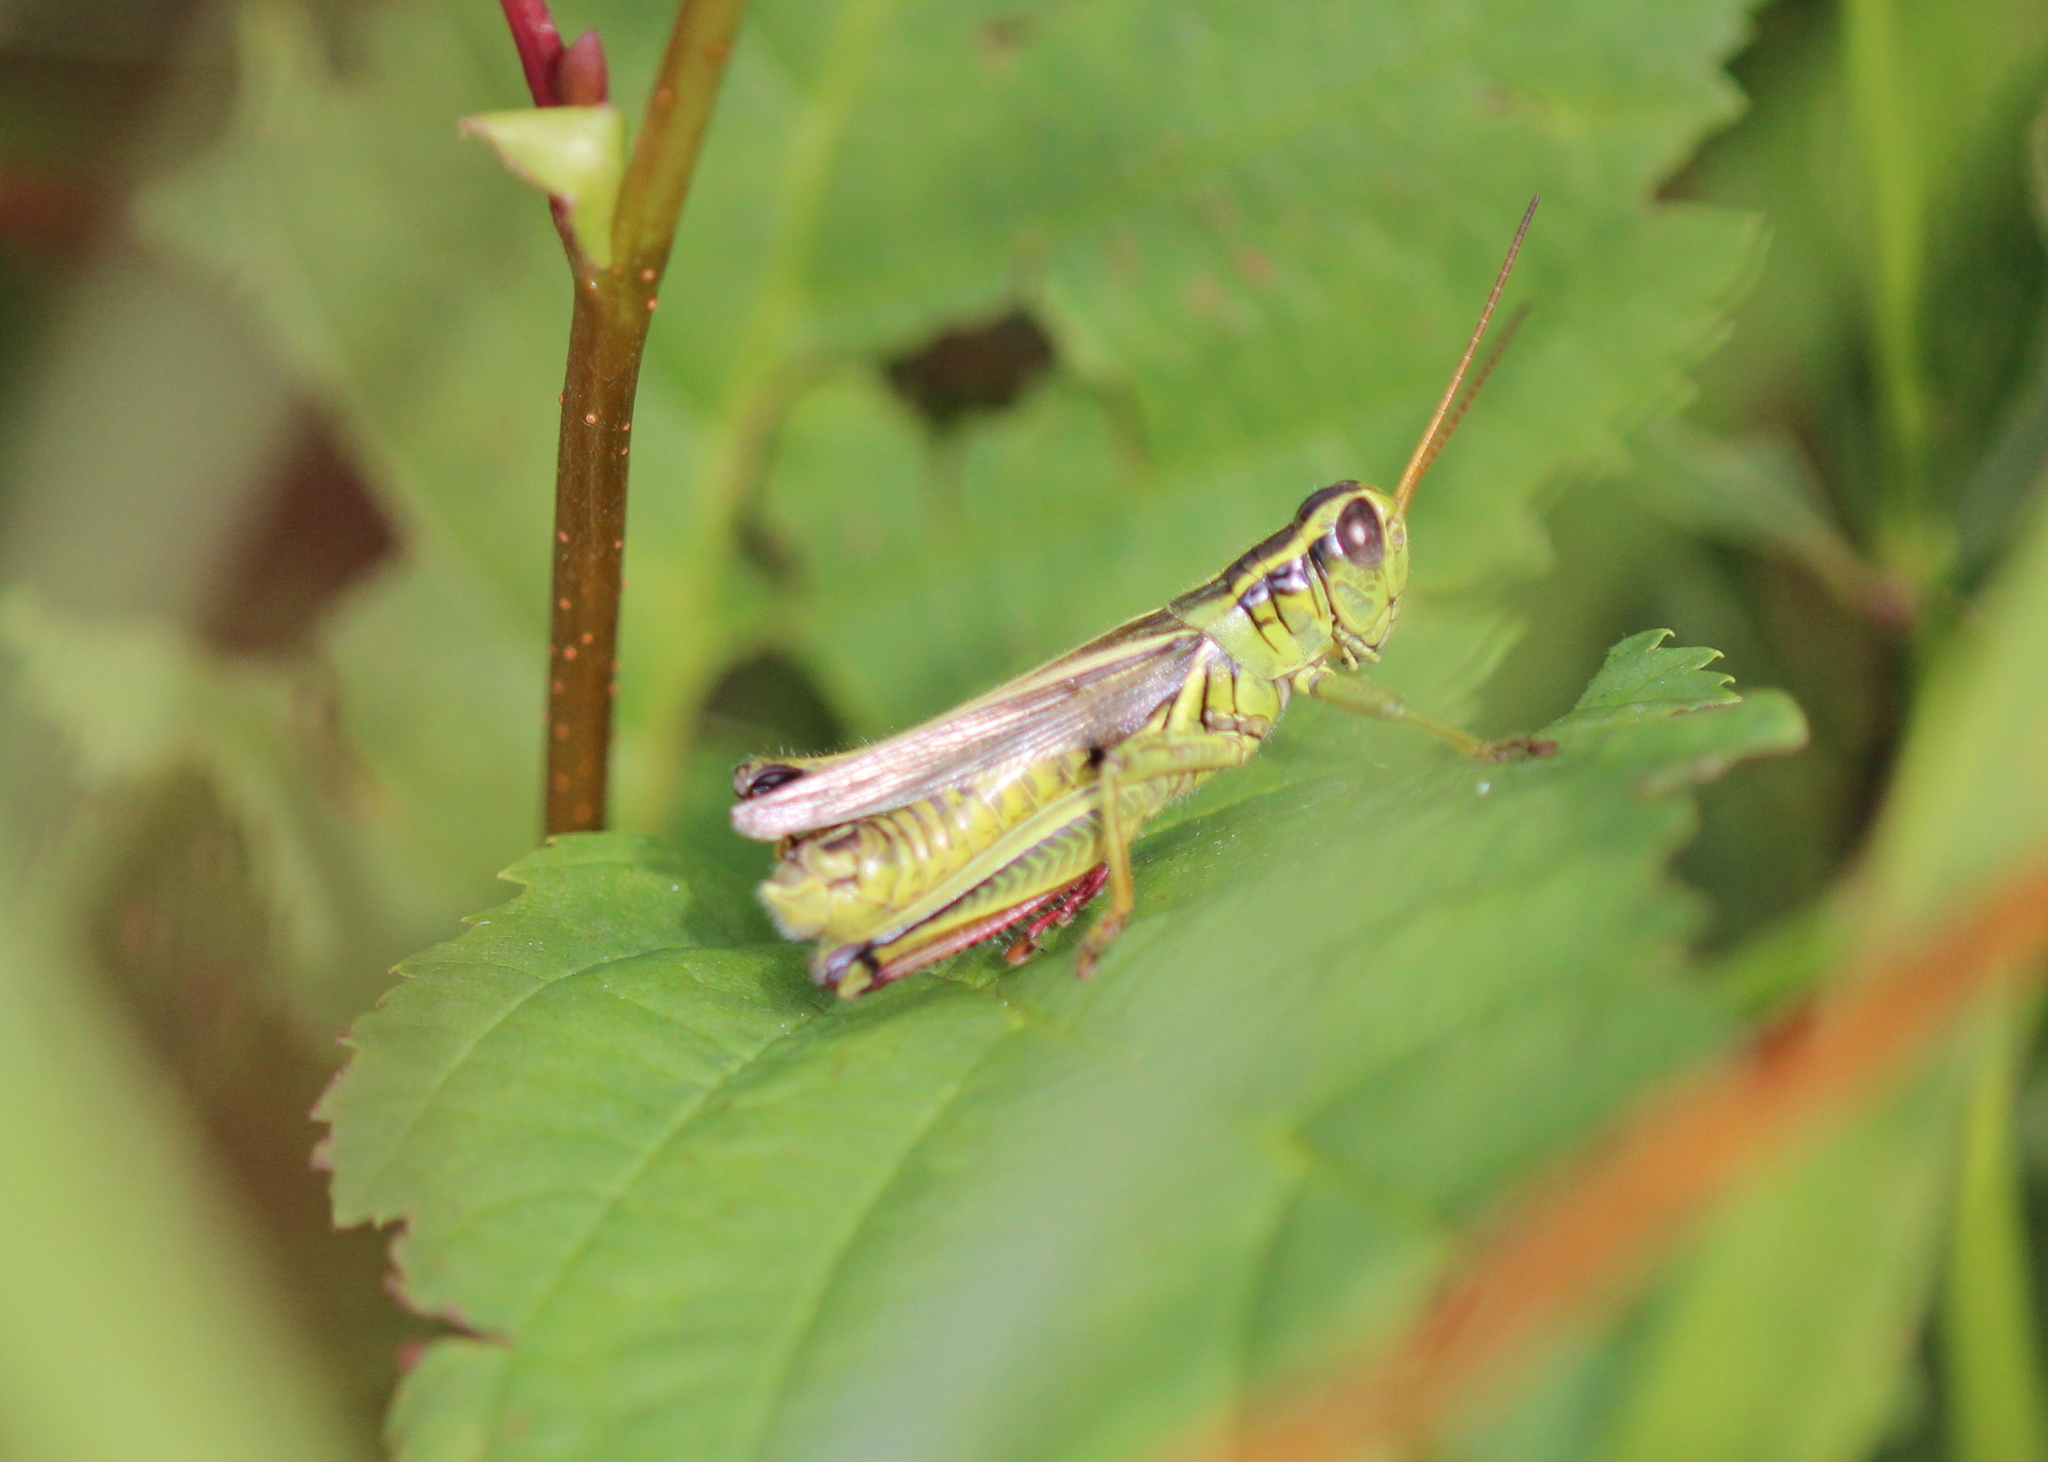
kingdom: Animalia
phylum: Arthropoda
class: Insecta
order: Orthoptera
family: Acrididae
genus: Melanoplus
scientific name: Melanoplus bivittatus
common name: Two-striped grasshopper
